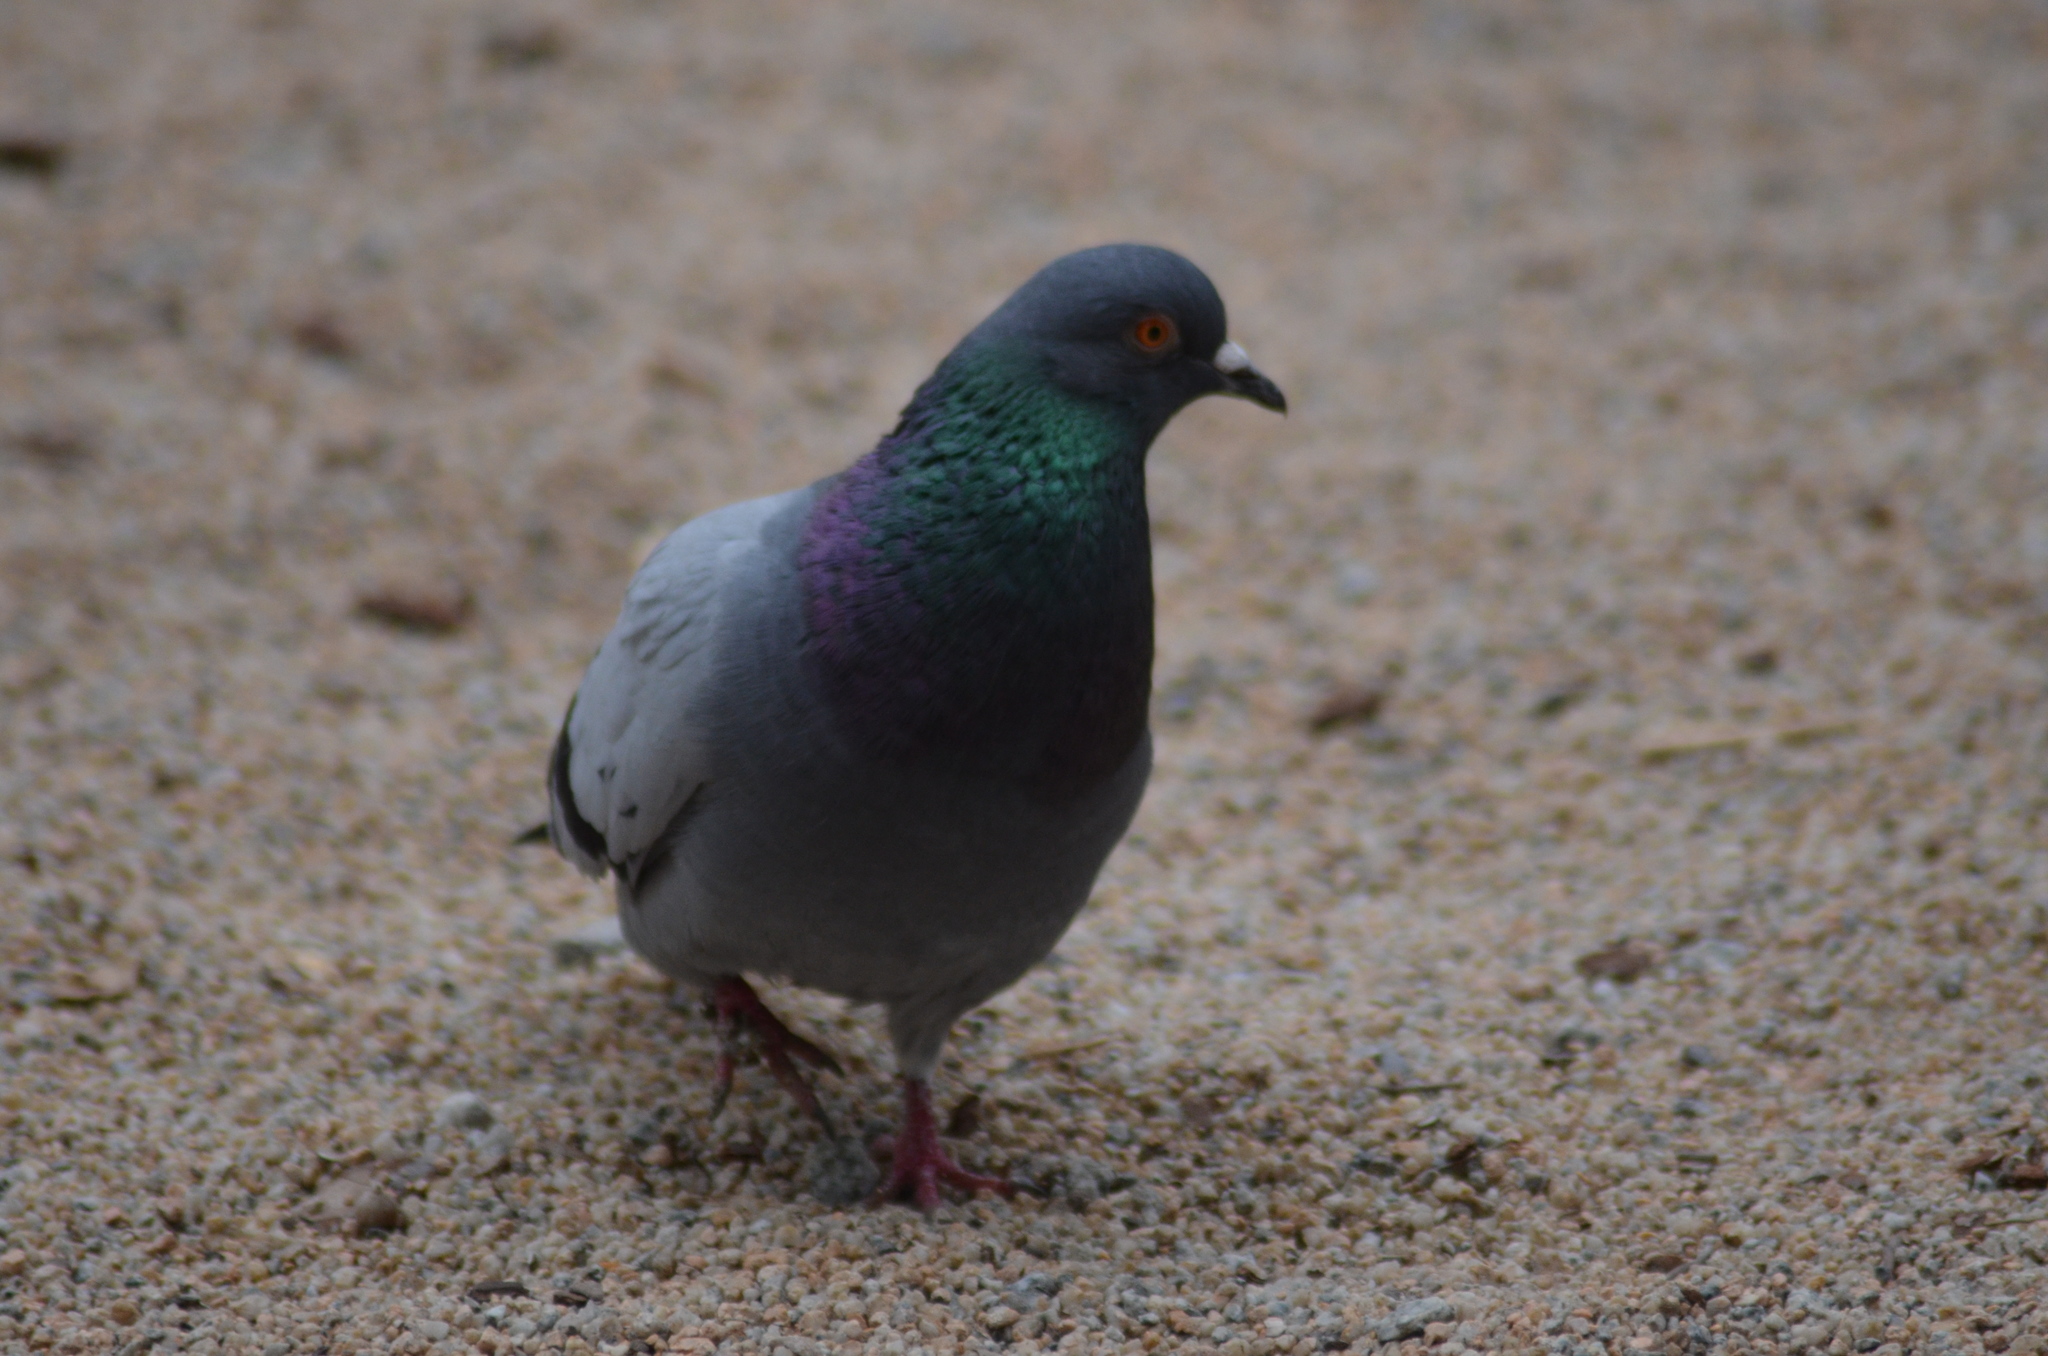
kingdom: Animalia
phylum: Chordata
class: Aves
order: Columbiformes
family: Columbidae
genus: Columba
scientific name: Columba livia
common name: Rock pigeon
